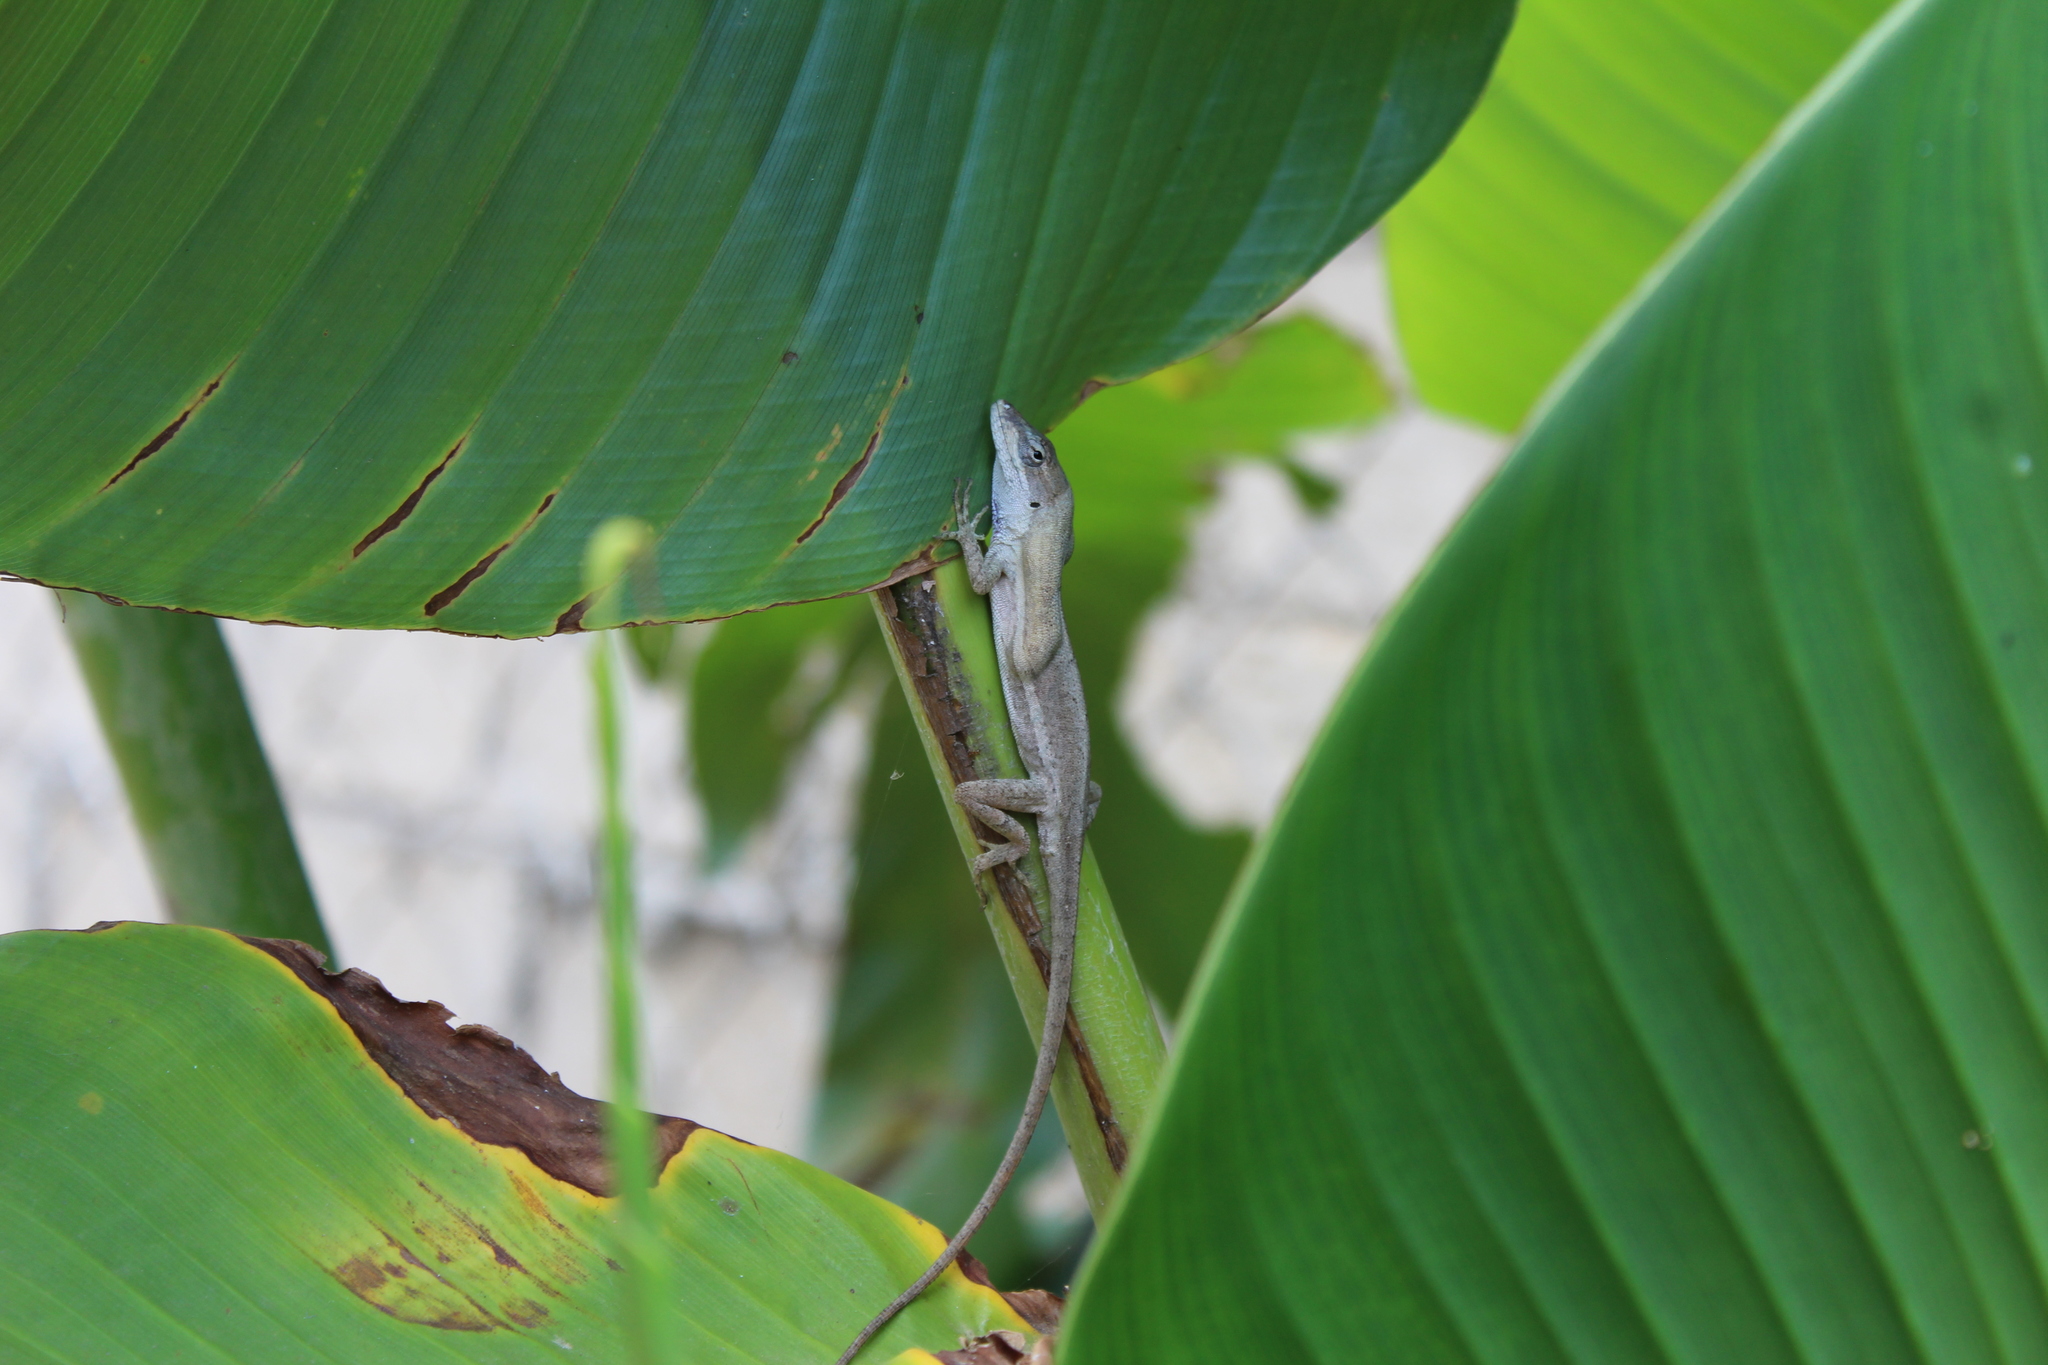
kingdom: Animalia
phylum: Chordata
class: Squamata
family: Dactyloidae
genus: Anolis
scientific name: Anolis quercorum
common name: Gray anole
